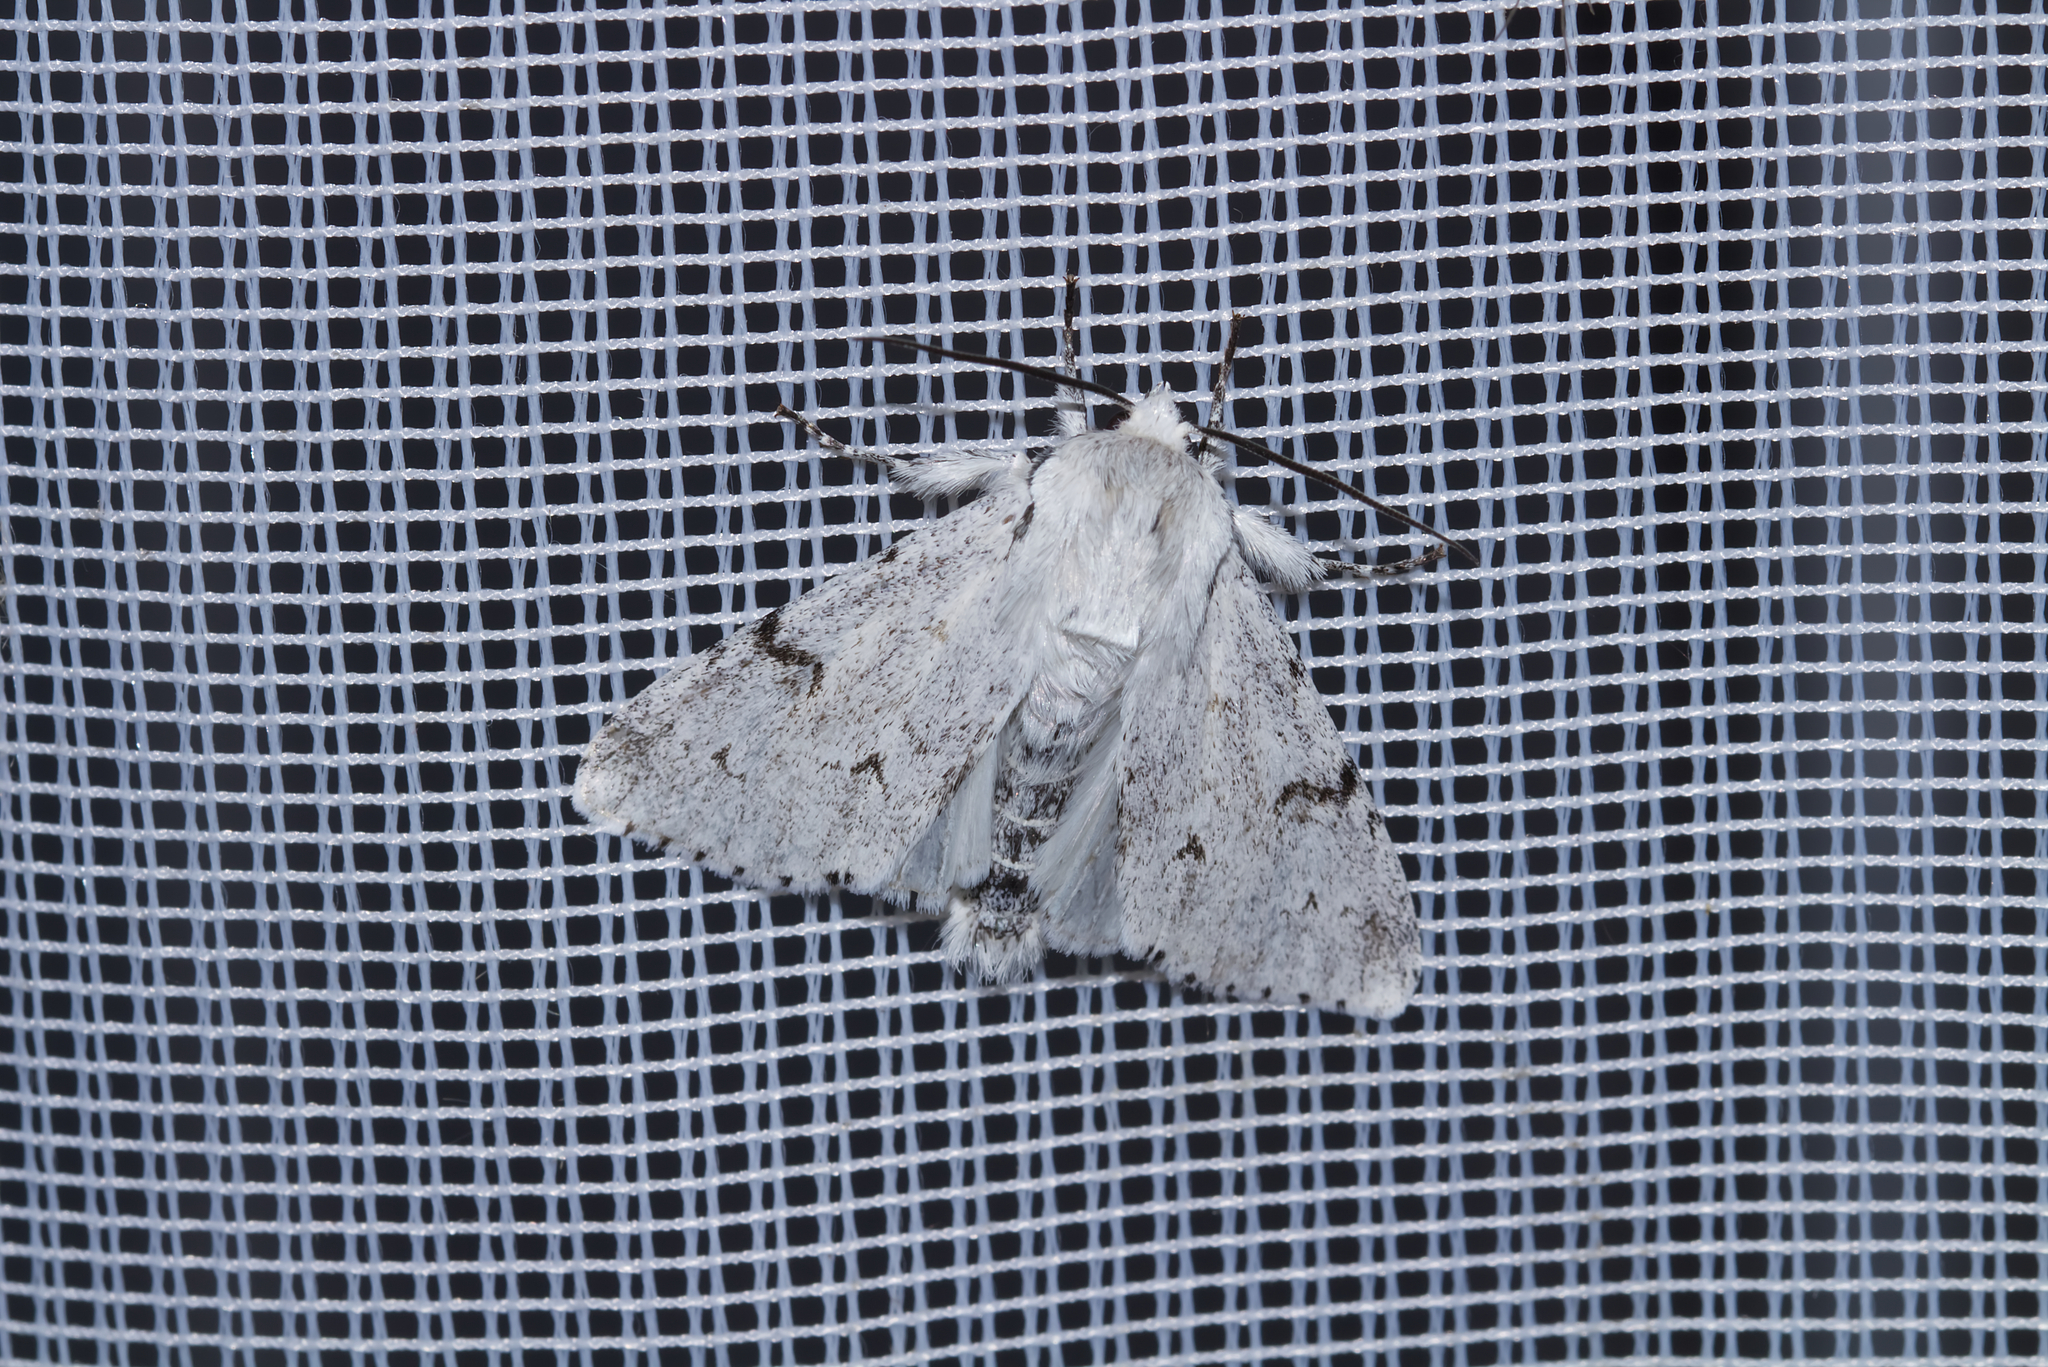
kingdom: Animalia
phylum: Arthropoda
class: Insecta
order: Lepidoptera
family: Noctuidae
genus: Acronicta
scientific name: Acronicta leporina
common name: Miller
